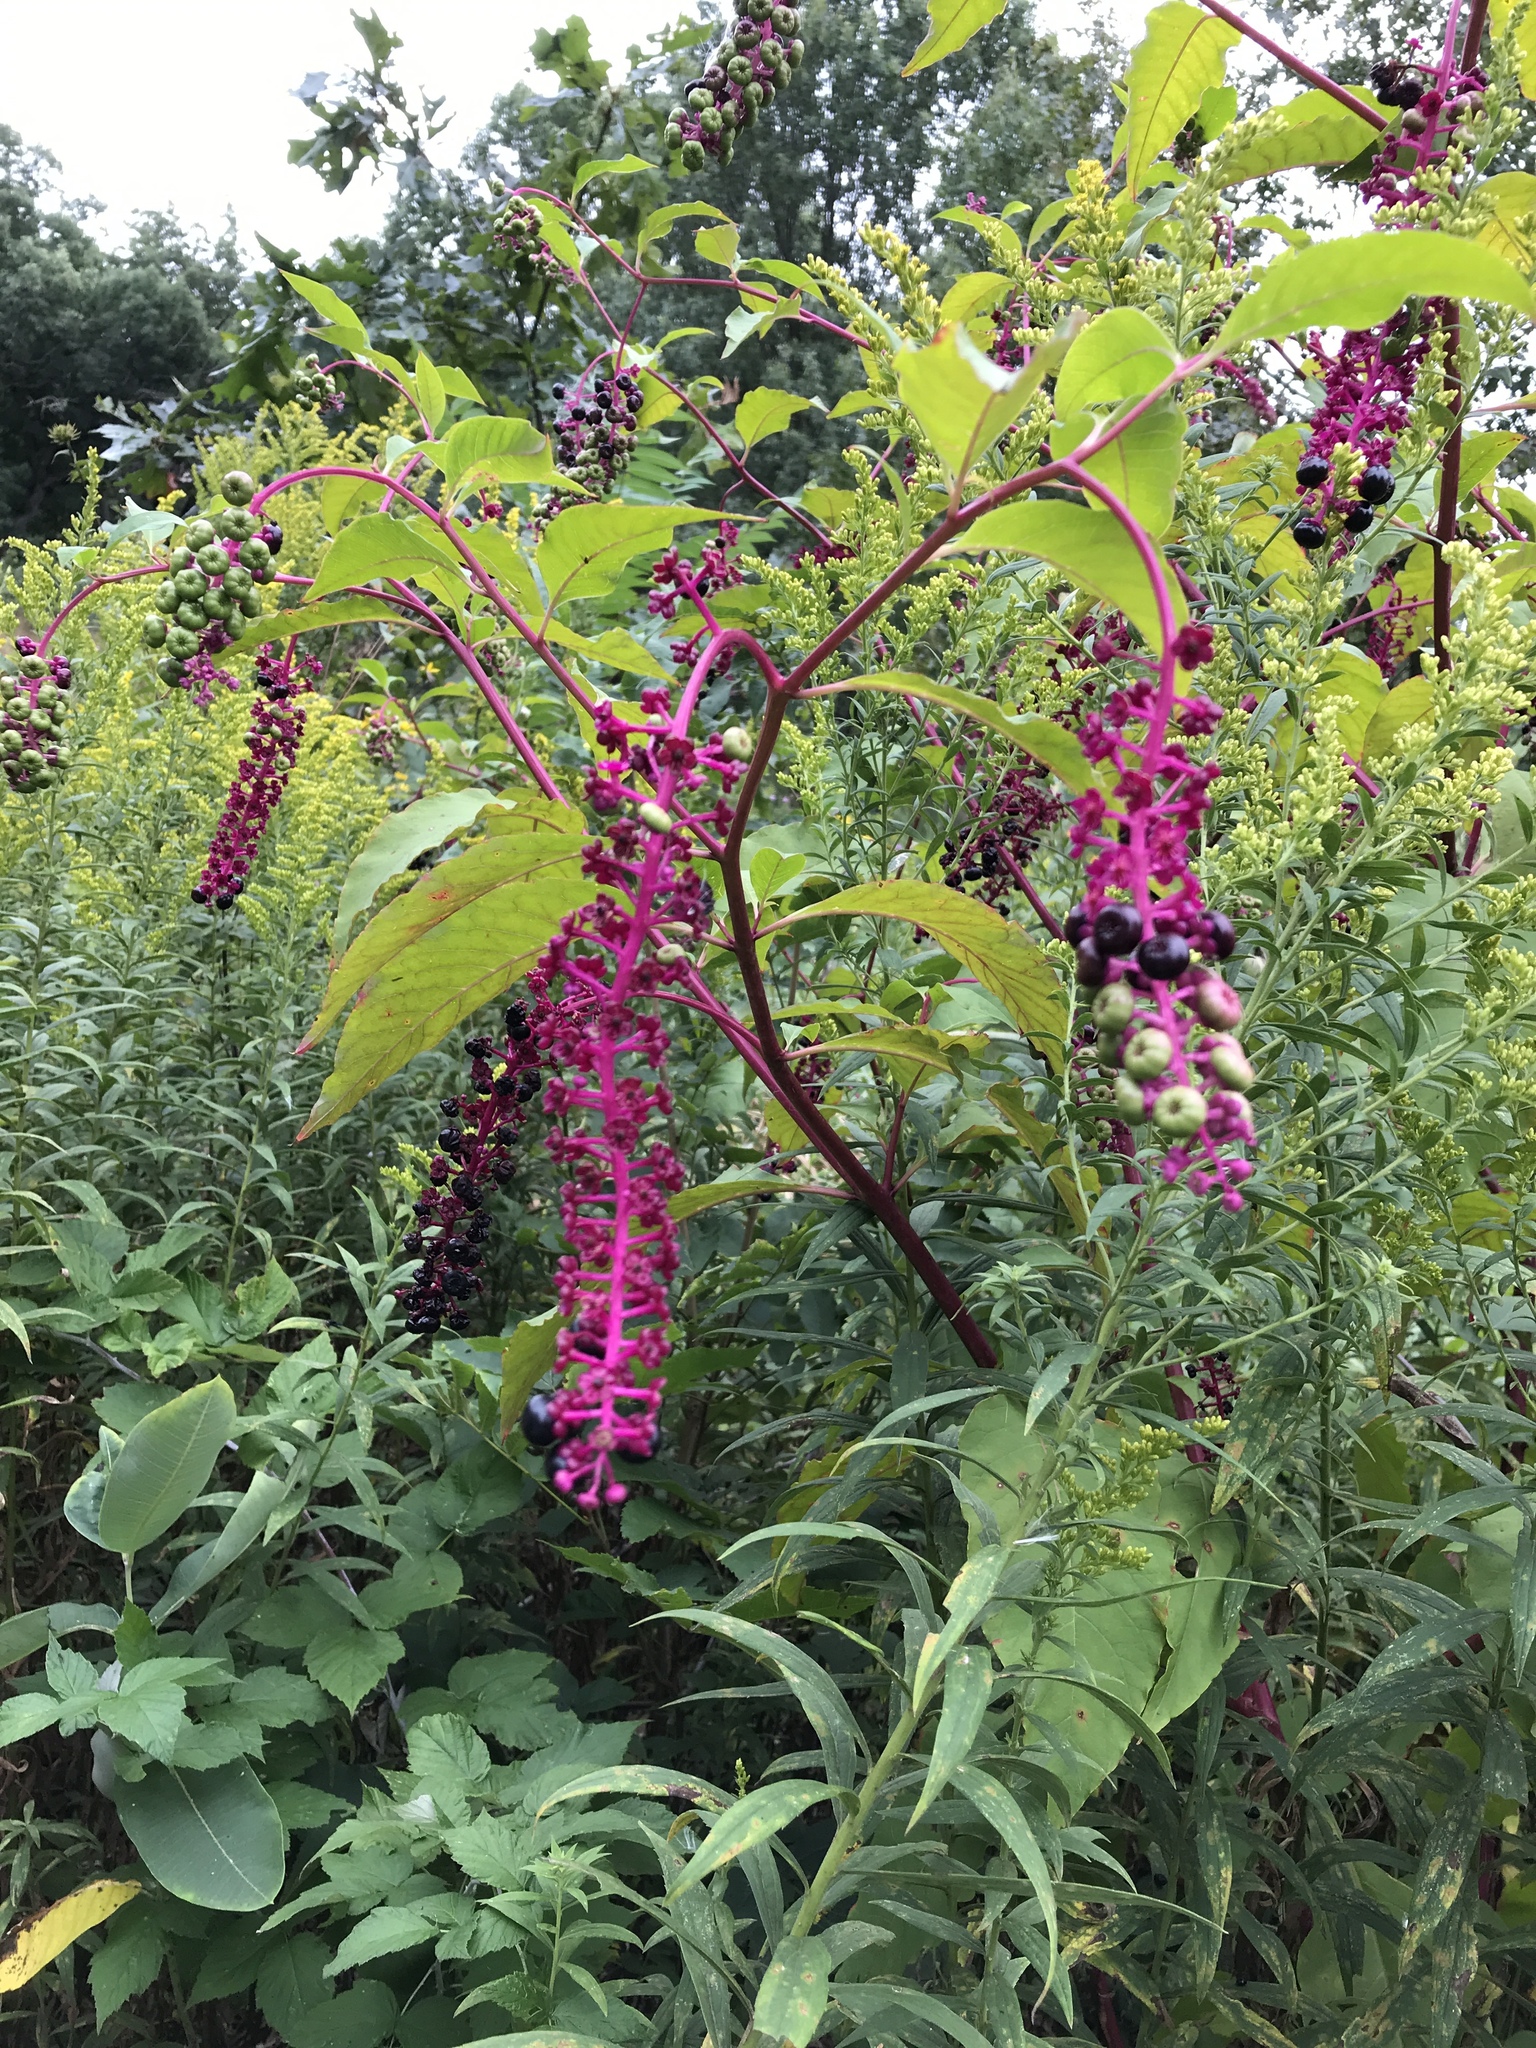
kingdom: Plantae
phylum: Tracheophyta
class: Magnoliopsida
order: Caryophyllales
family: Phytolaccaceae
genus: Phytolacca
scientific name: Phytolacca americana
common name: American pokeweed
